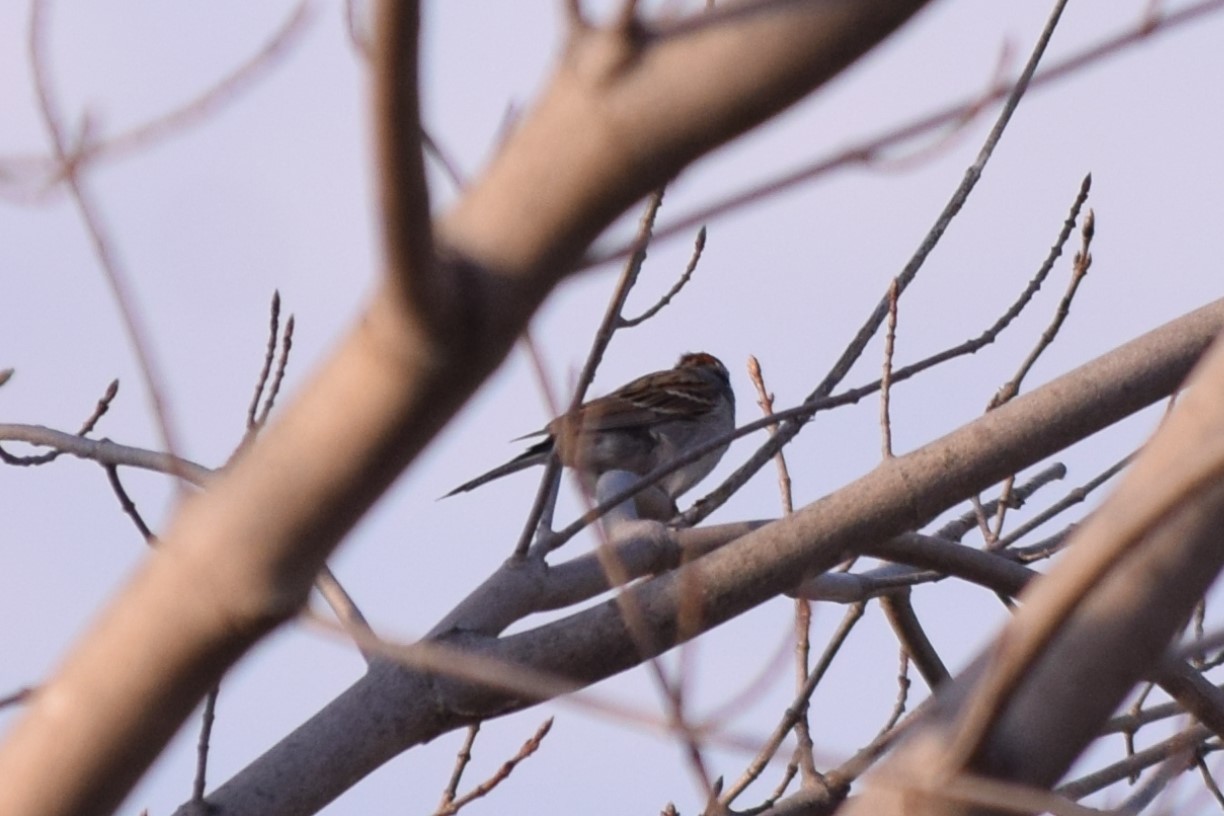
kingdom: Animalia
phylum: Chordata
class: Aves
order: Passeriformes
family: Passerellidae
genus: Spizella
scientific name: Spizella passerina
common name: Chipping sparrow
